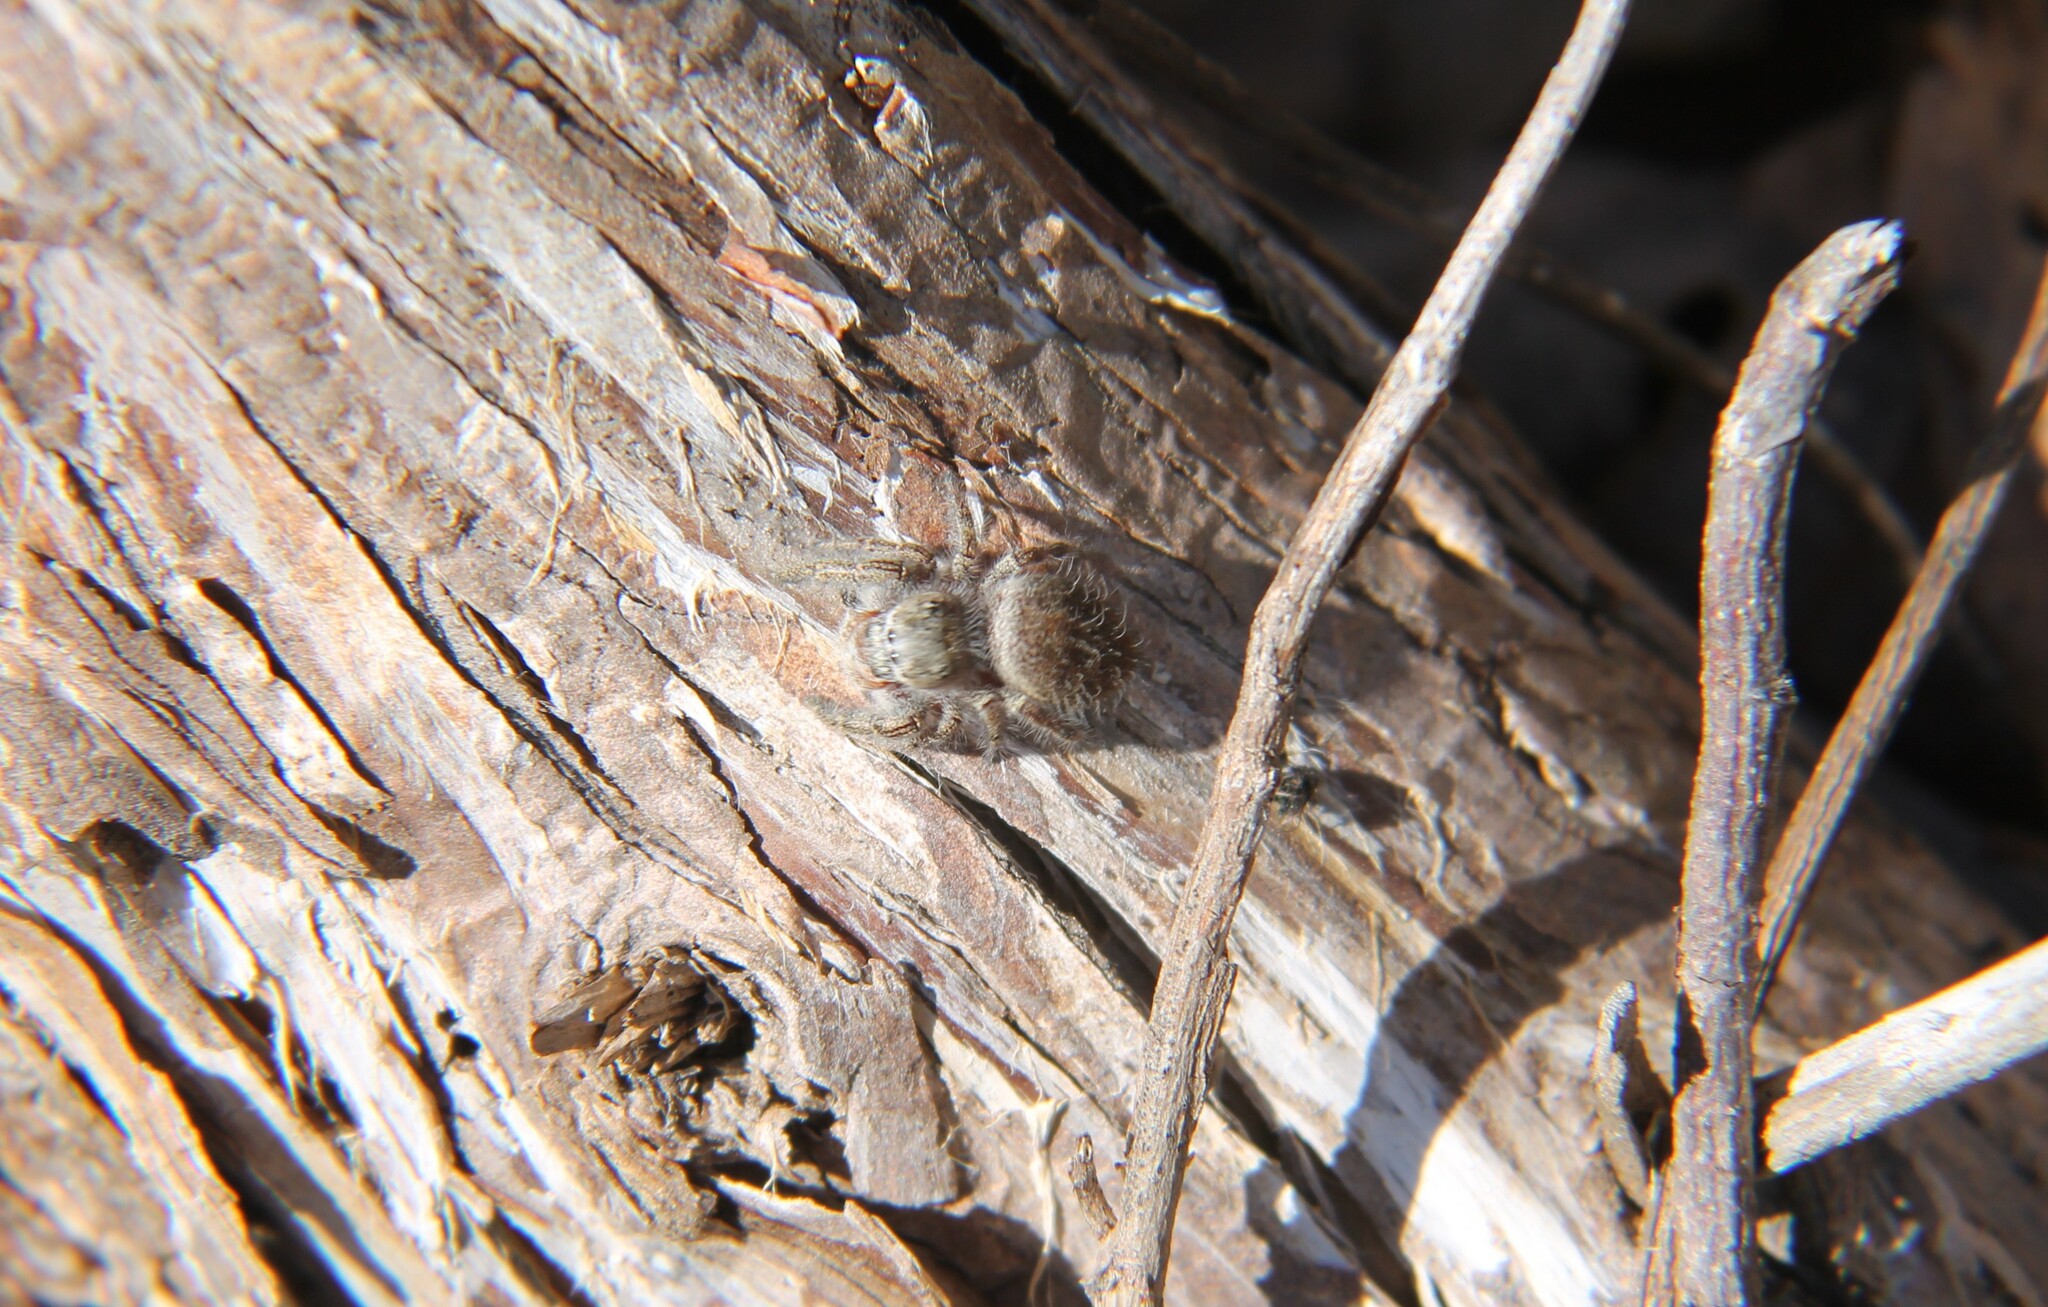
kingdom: Animalia
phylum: Arthropoda
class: Arachnida
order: Araneae
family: Salticidae
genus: Phidippus
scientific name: Phidippus princeps
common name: Grayish jumping spider
